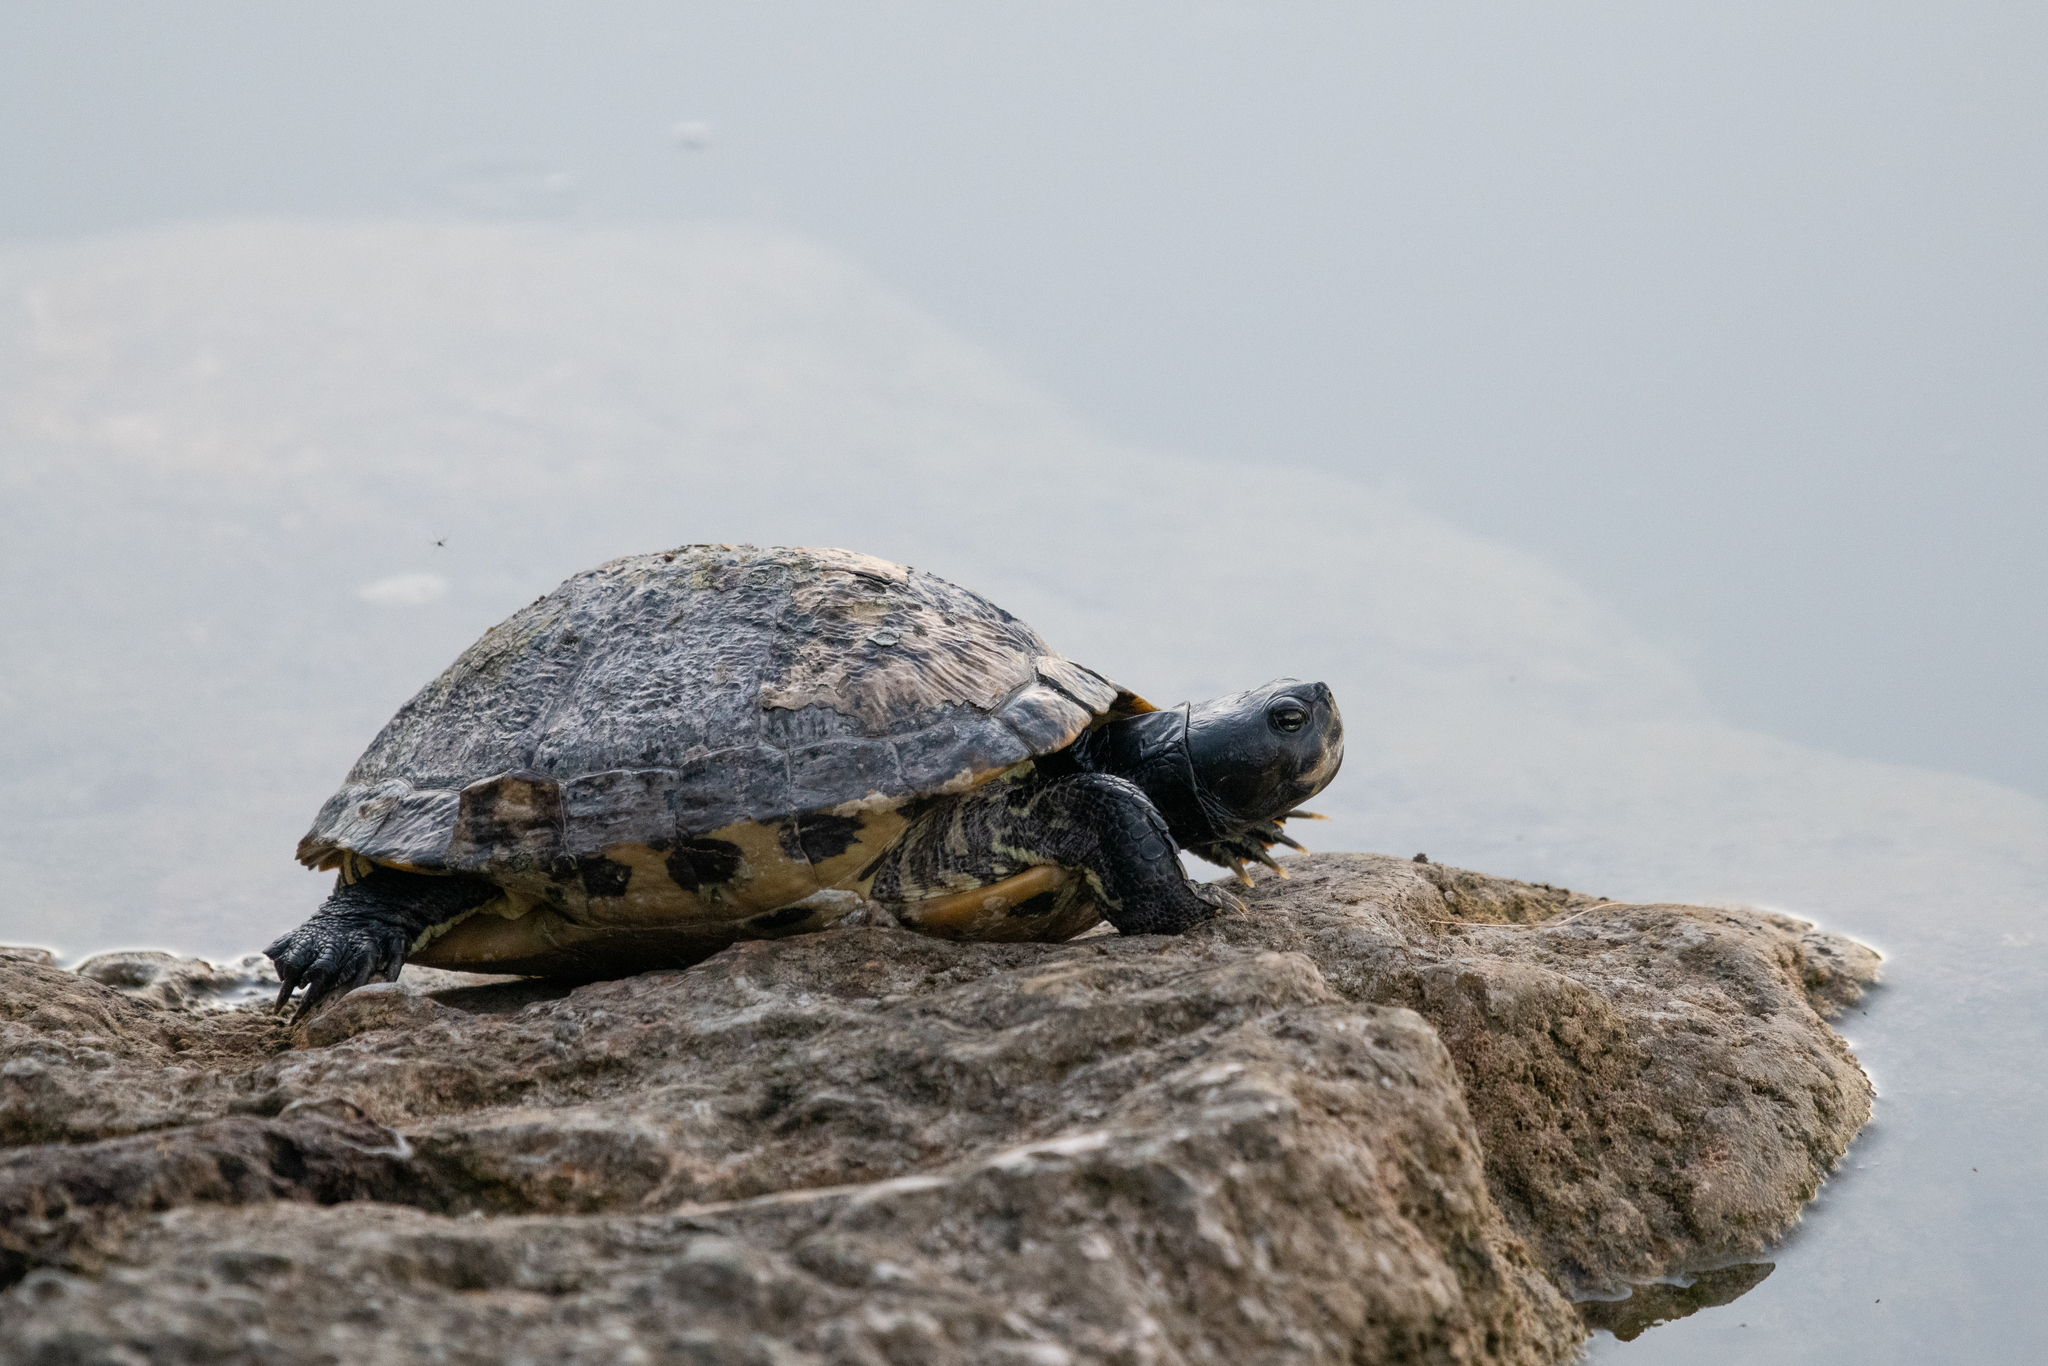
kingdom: Animalia
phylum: Chordata
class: Testudines
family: Emydidae
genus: Trachemys
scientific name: Trachemys scripta
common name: Slider
